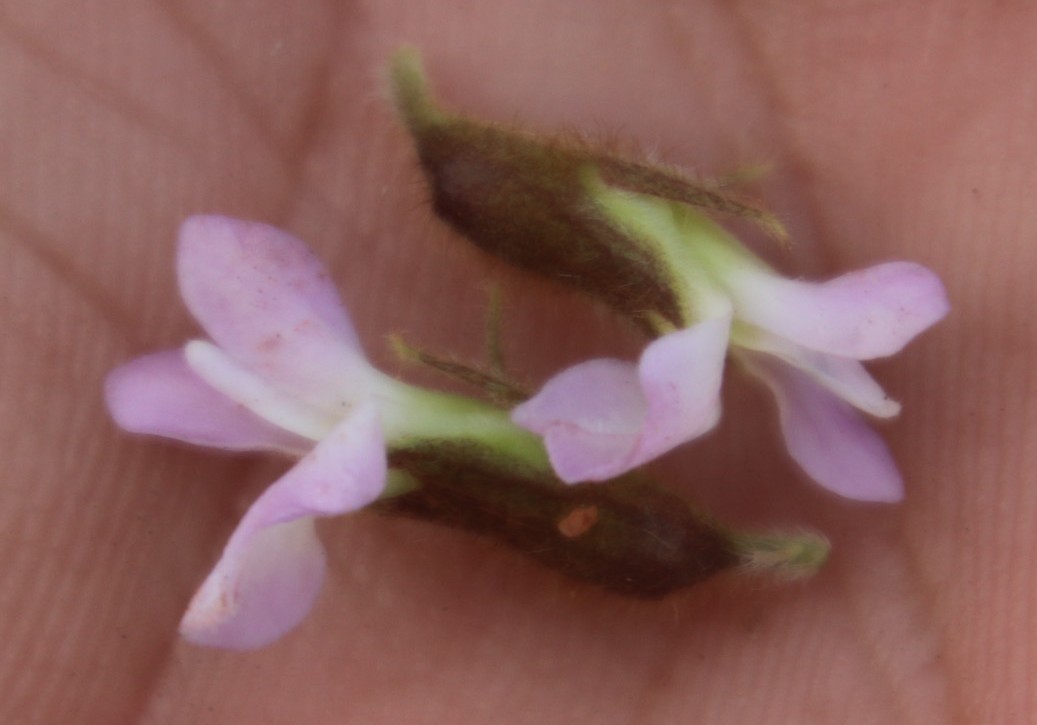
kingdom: Plantae
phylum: Tracheophyta
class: Magnoliopsida
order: Fabales
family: Fabaceae
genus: Ophrestia
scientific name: Ophrestia oblongifolia
